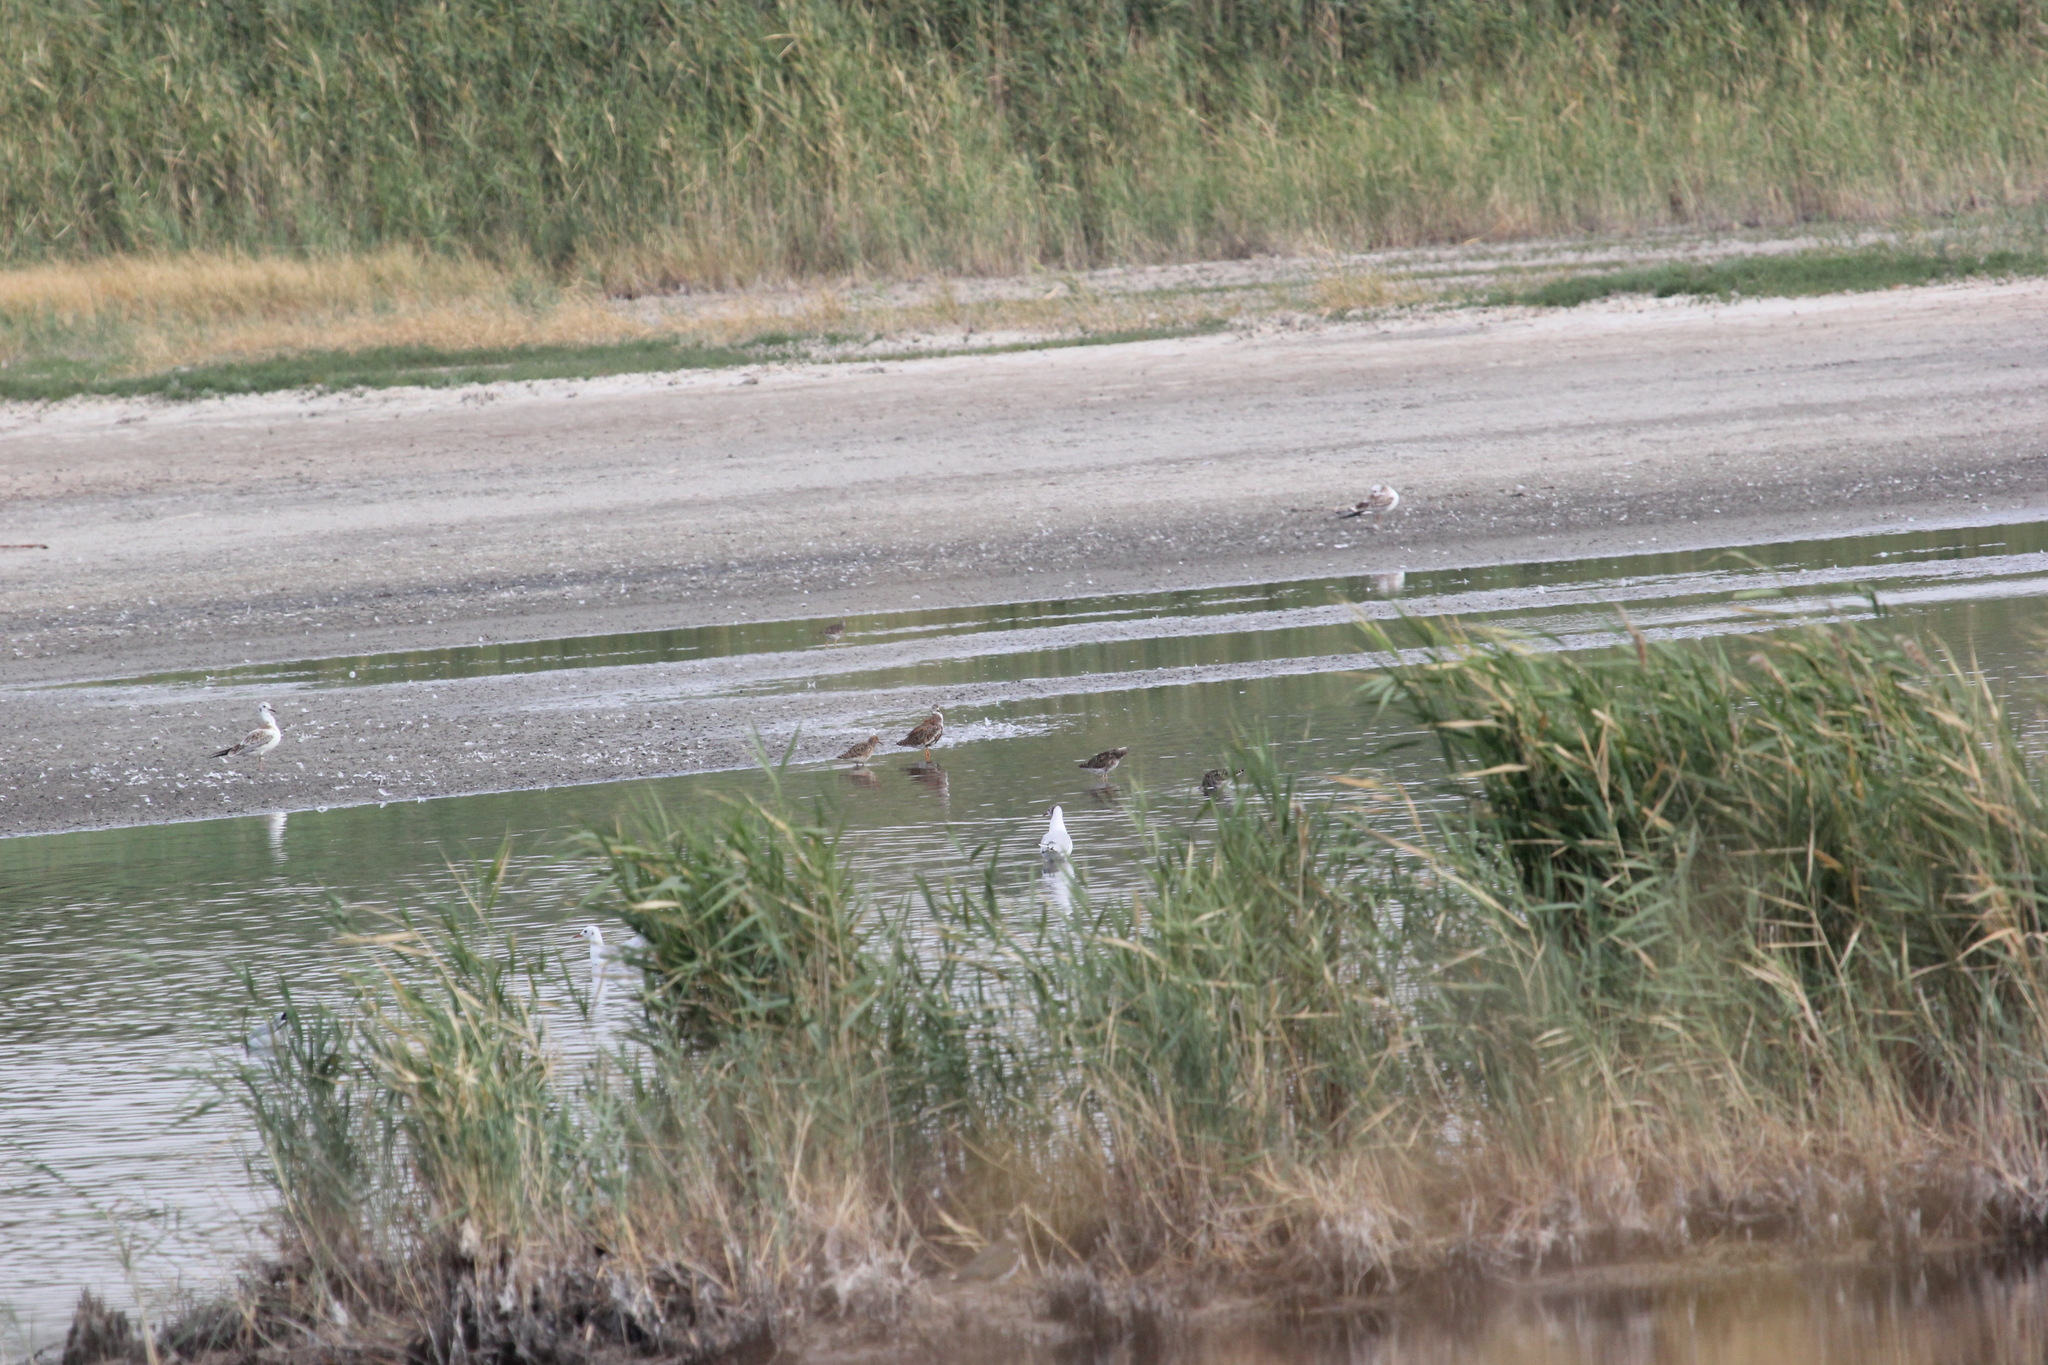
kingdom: Animalia
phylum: Chordata
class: Aves
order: Charadriiformes
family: Scolopacidae
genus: Calidris
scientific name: Calidris pugnax
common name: Ruff
